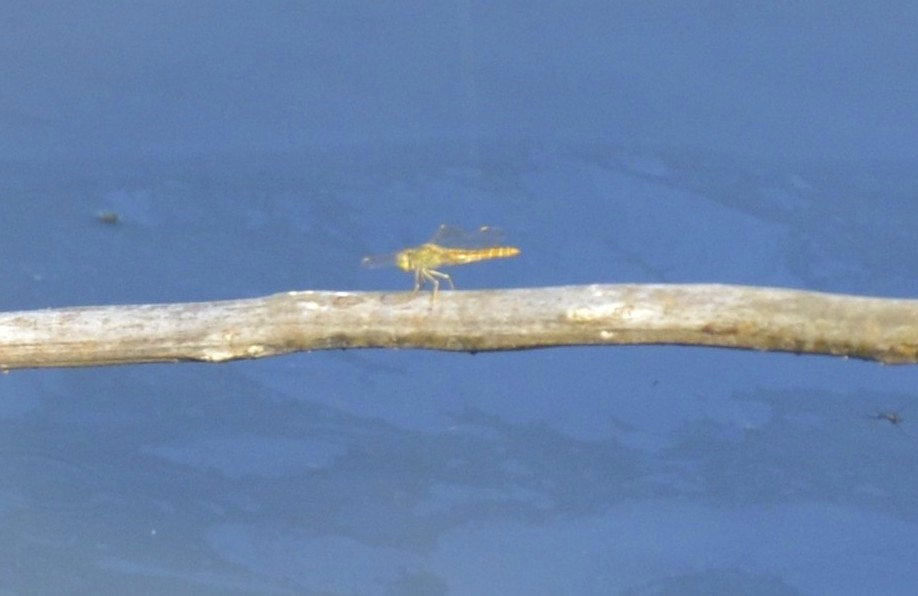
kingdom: Animalia
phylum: Arthropoda
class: Insecta
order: Odonata
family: Libellulidae
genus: Brachythemis
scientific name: Brachythemis contaminata
